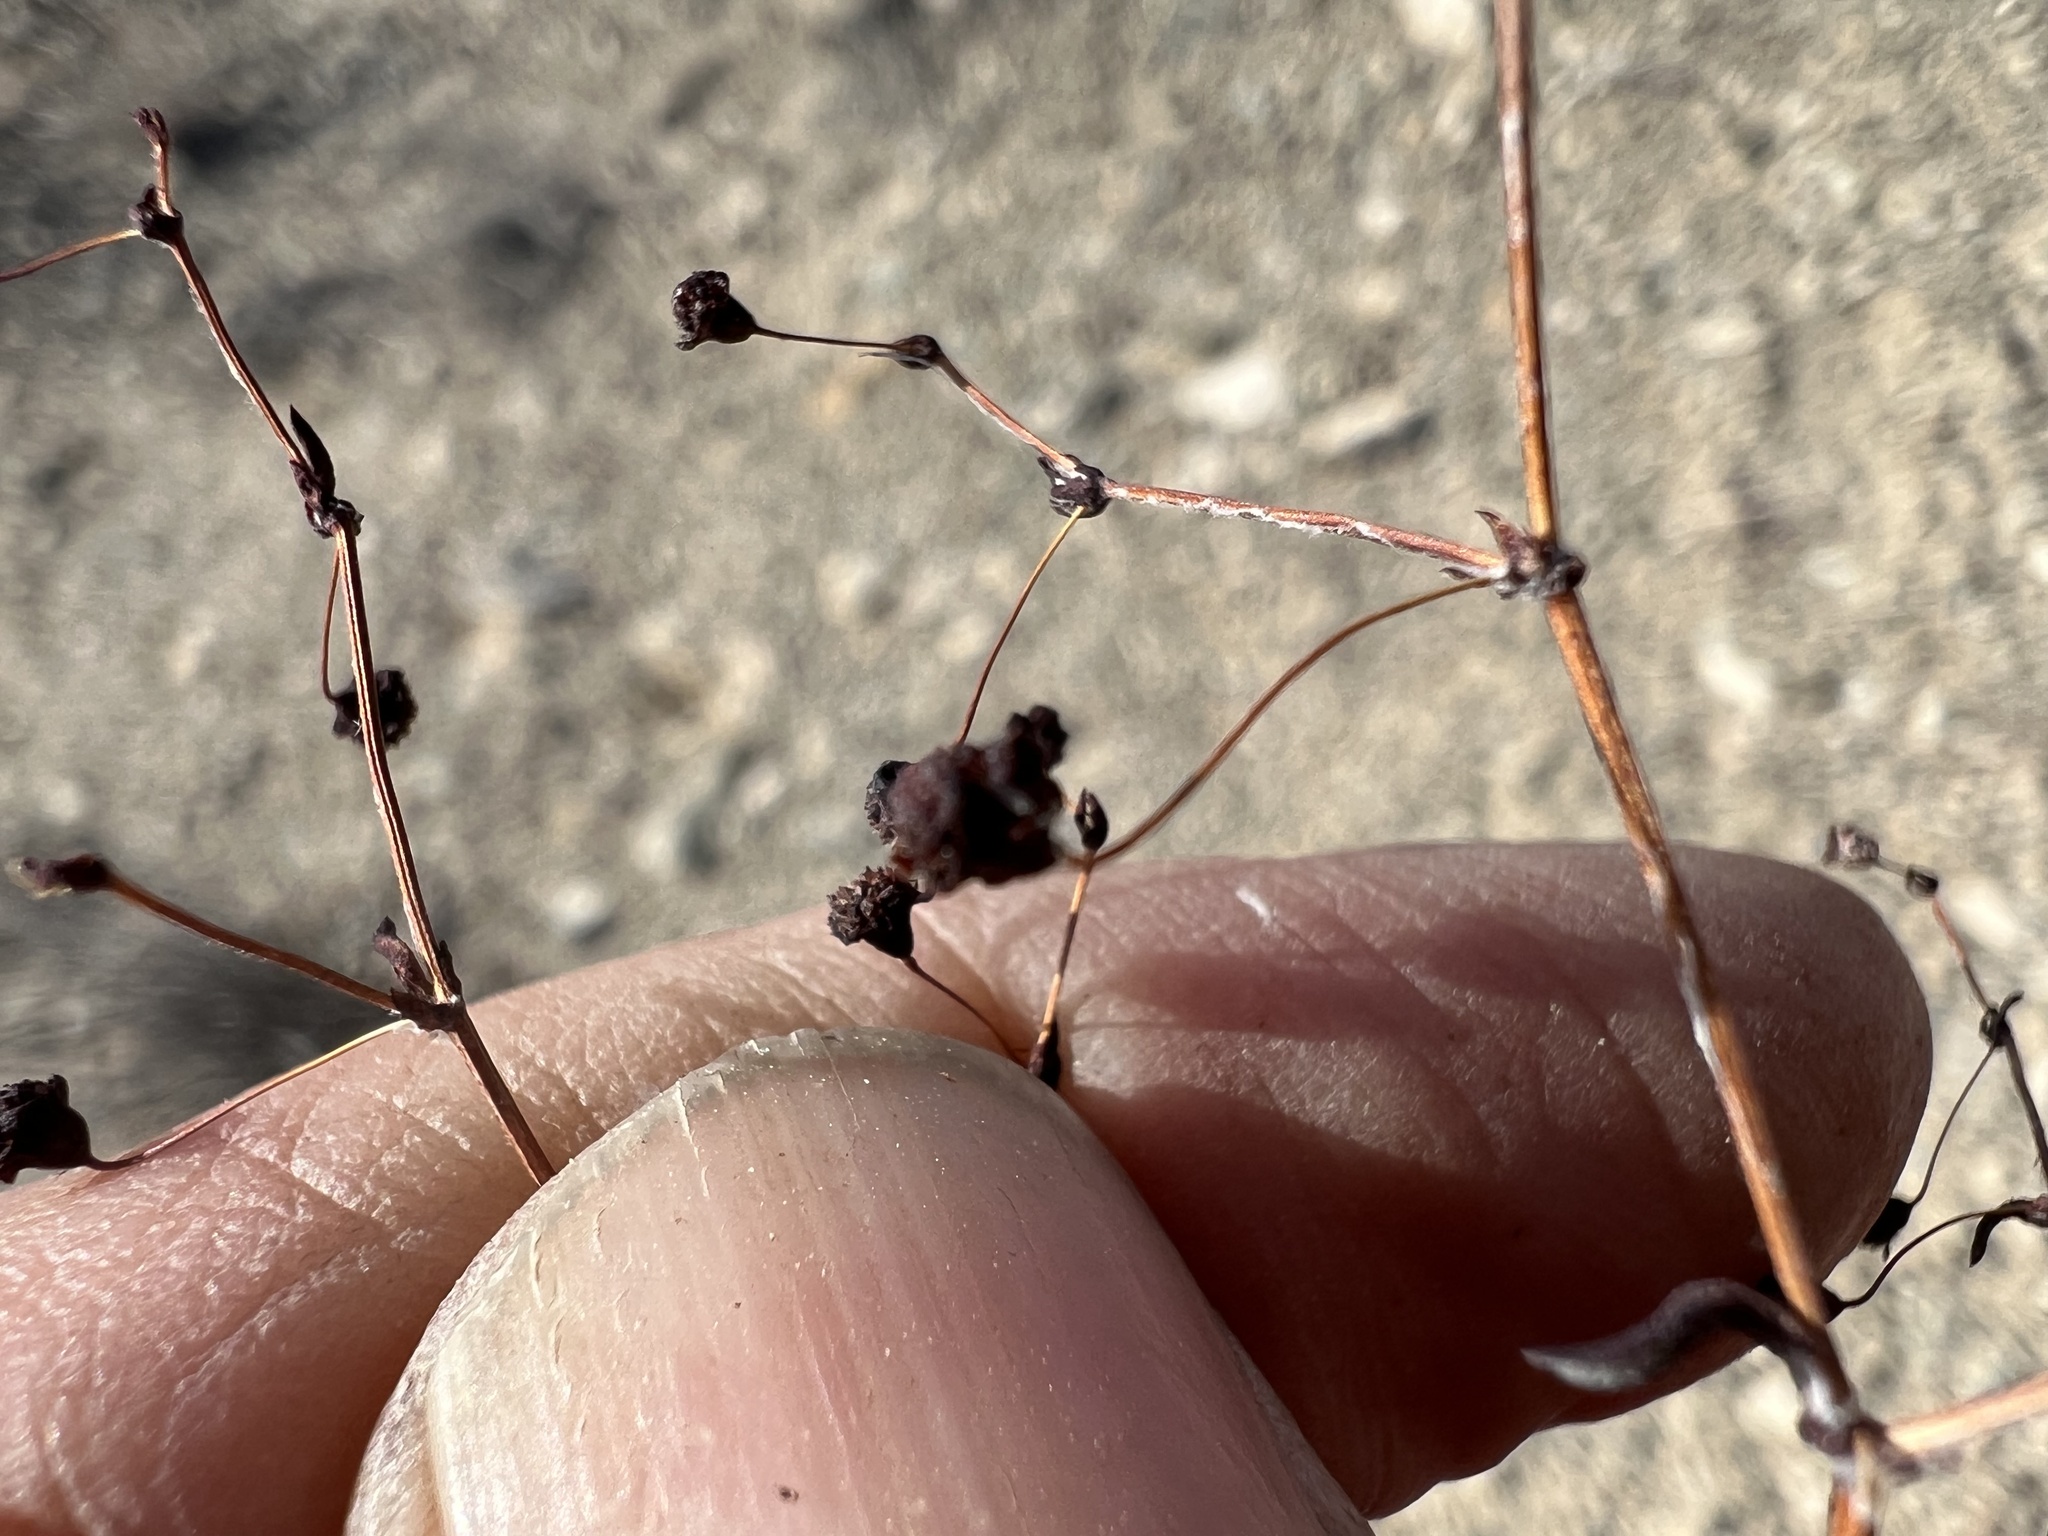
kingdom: Plantae
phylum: Tracheophyta
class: Magnoliopsida
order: Caryophyllales
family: Polygonaceae
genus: Eriogonum
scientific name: Eriogonum maculatum
